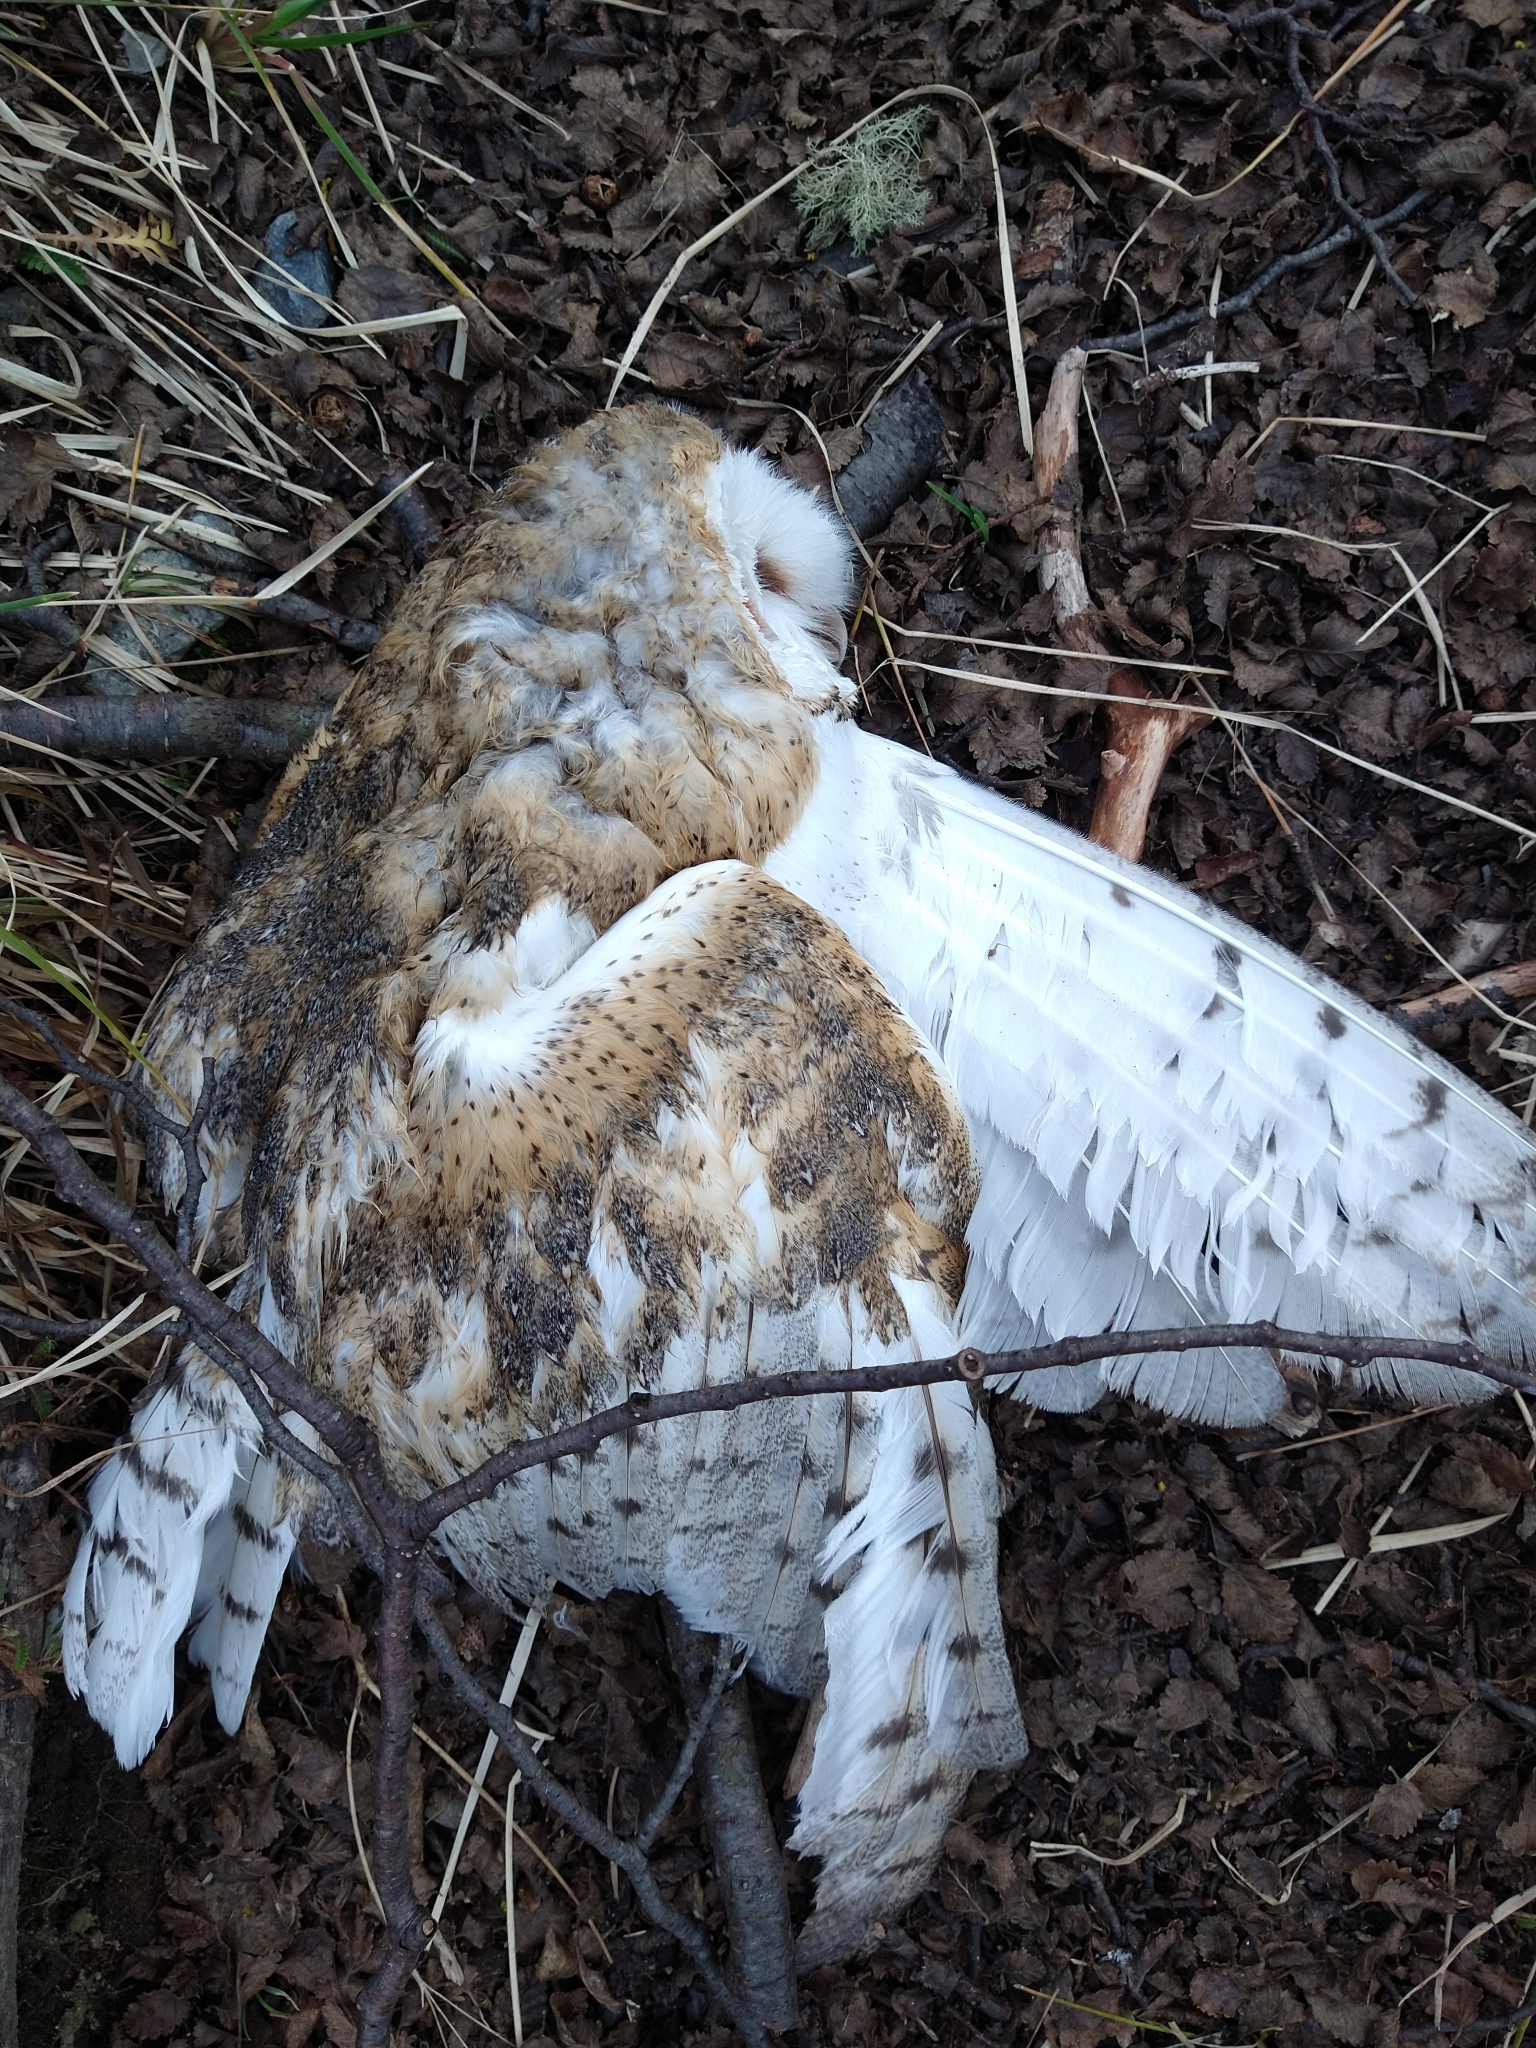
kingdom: Animalia
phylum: Chordata
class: Aves
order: Strigiformes
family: Tytonidae
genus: Tyto
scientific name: Tyto alba
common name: Barn owl
